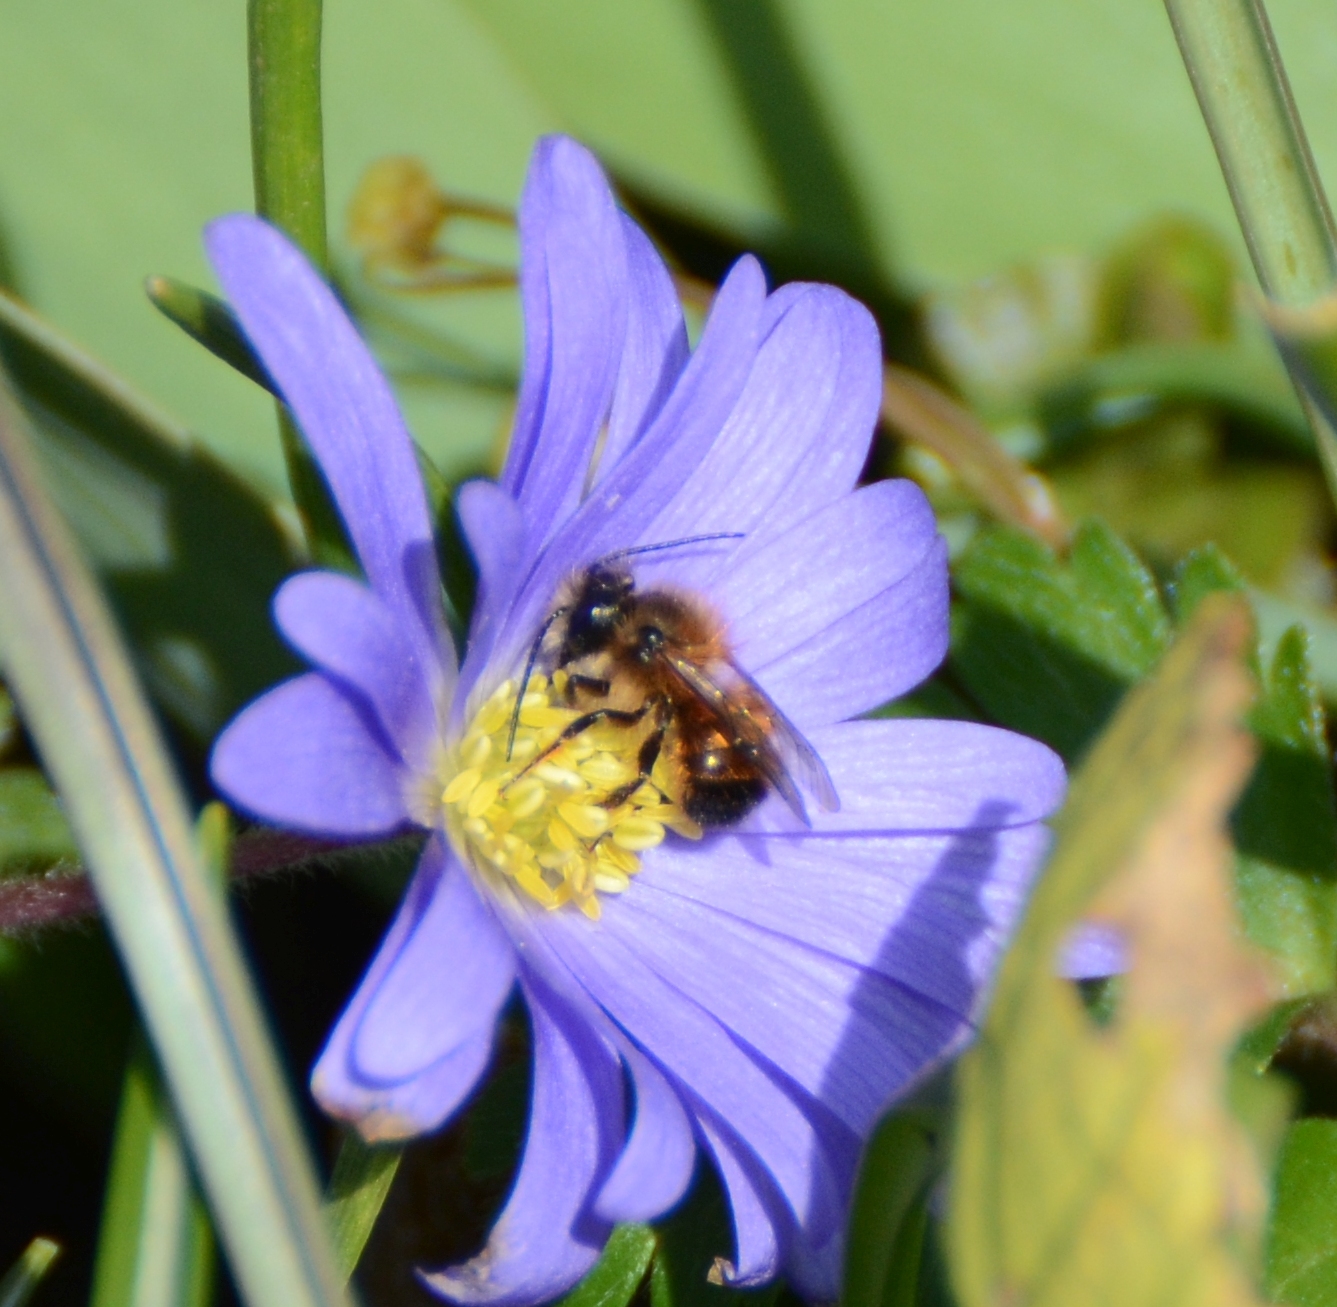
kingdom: Animalia
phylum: Arthropoda
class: Insecta
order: Hymenoptera
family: Megachilidae
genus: Osmia
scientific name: Osmia bicornis
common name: Red mason bee
